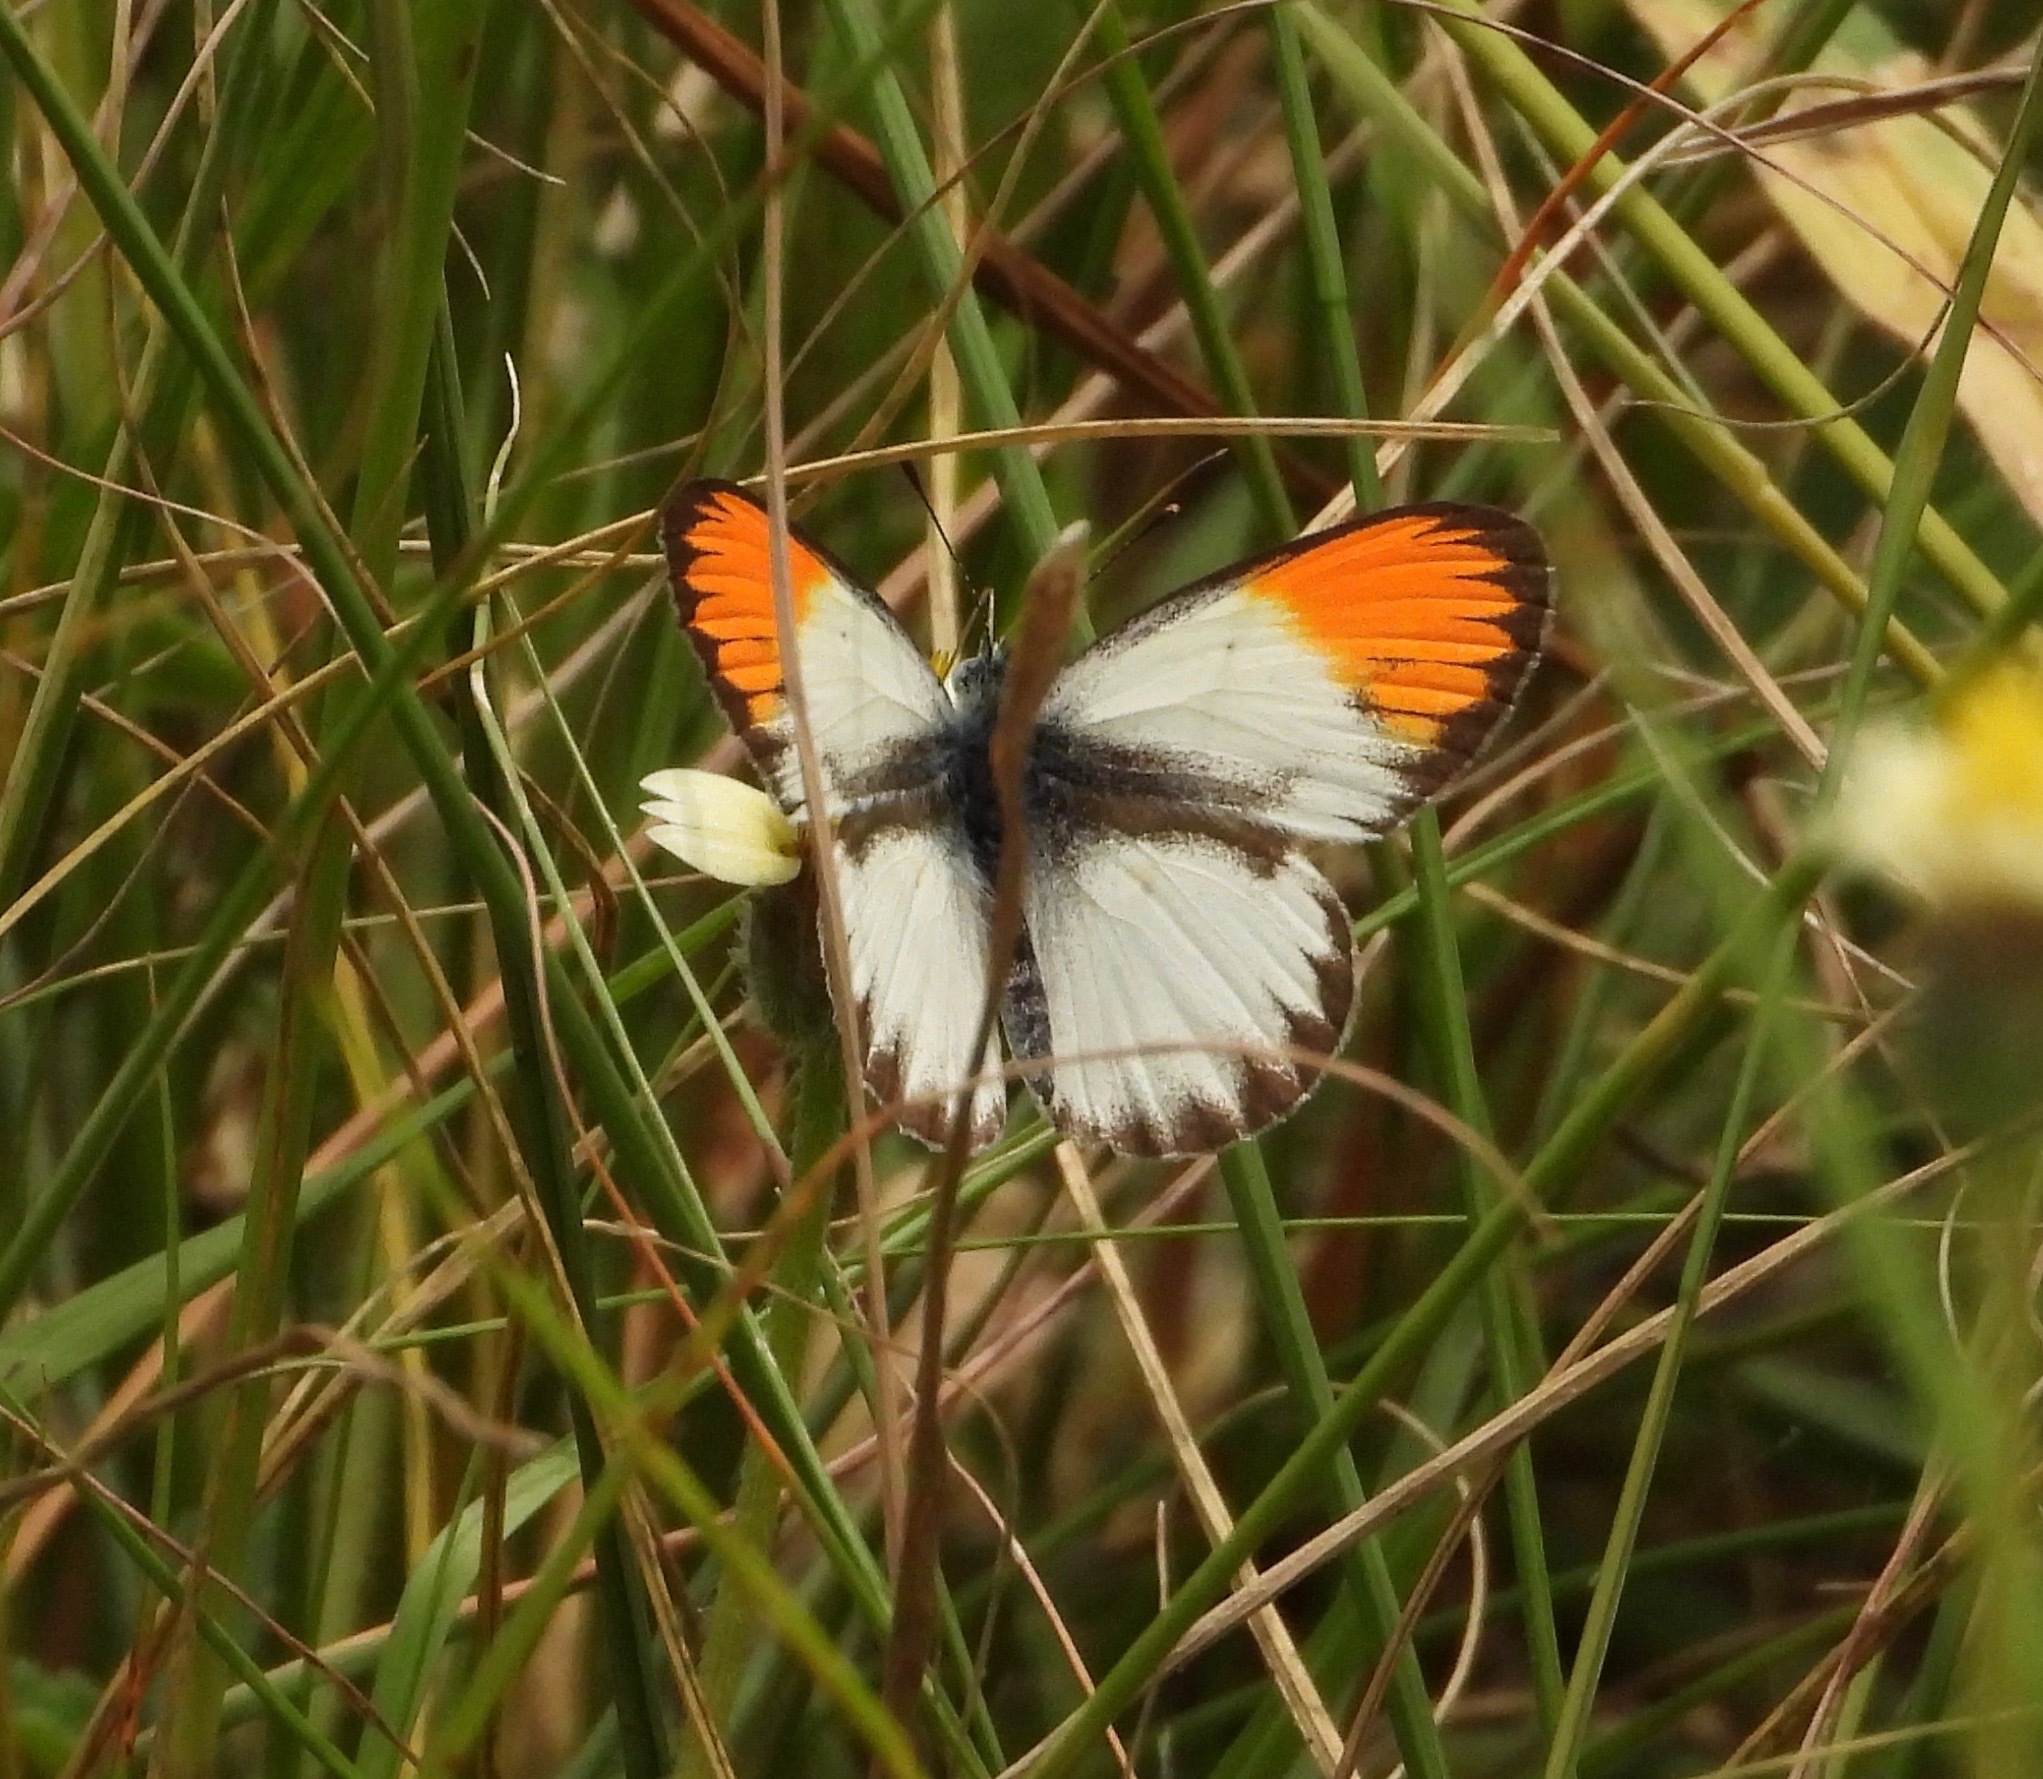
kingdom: Animalia
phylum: Arthropoda
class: Insecta
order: Lepidoptera
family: Pieridae
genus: Colotis
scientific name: Colotis evagore
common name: Desert orange-tip
